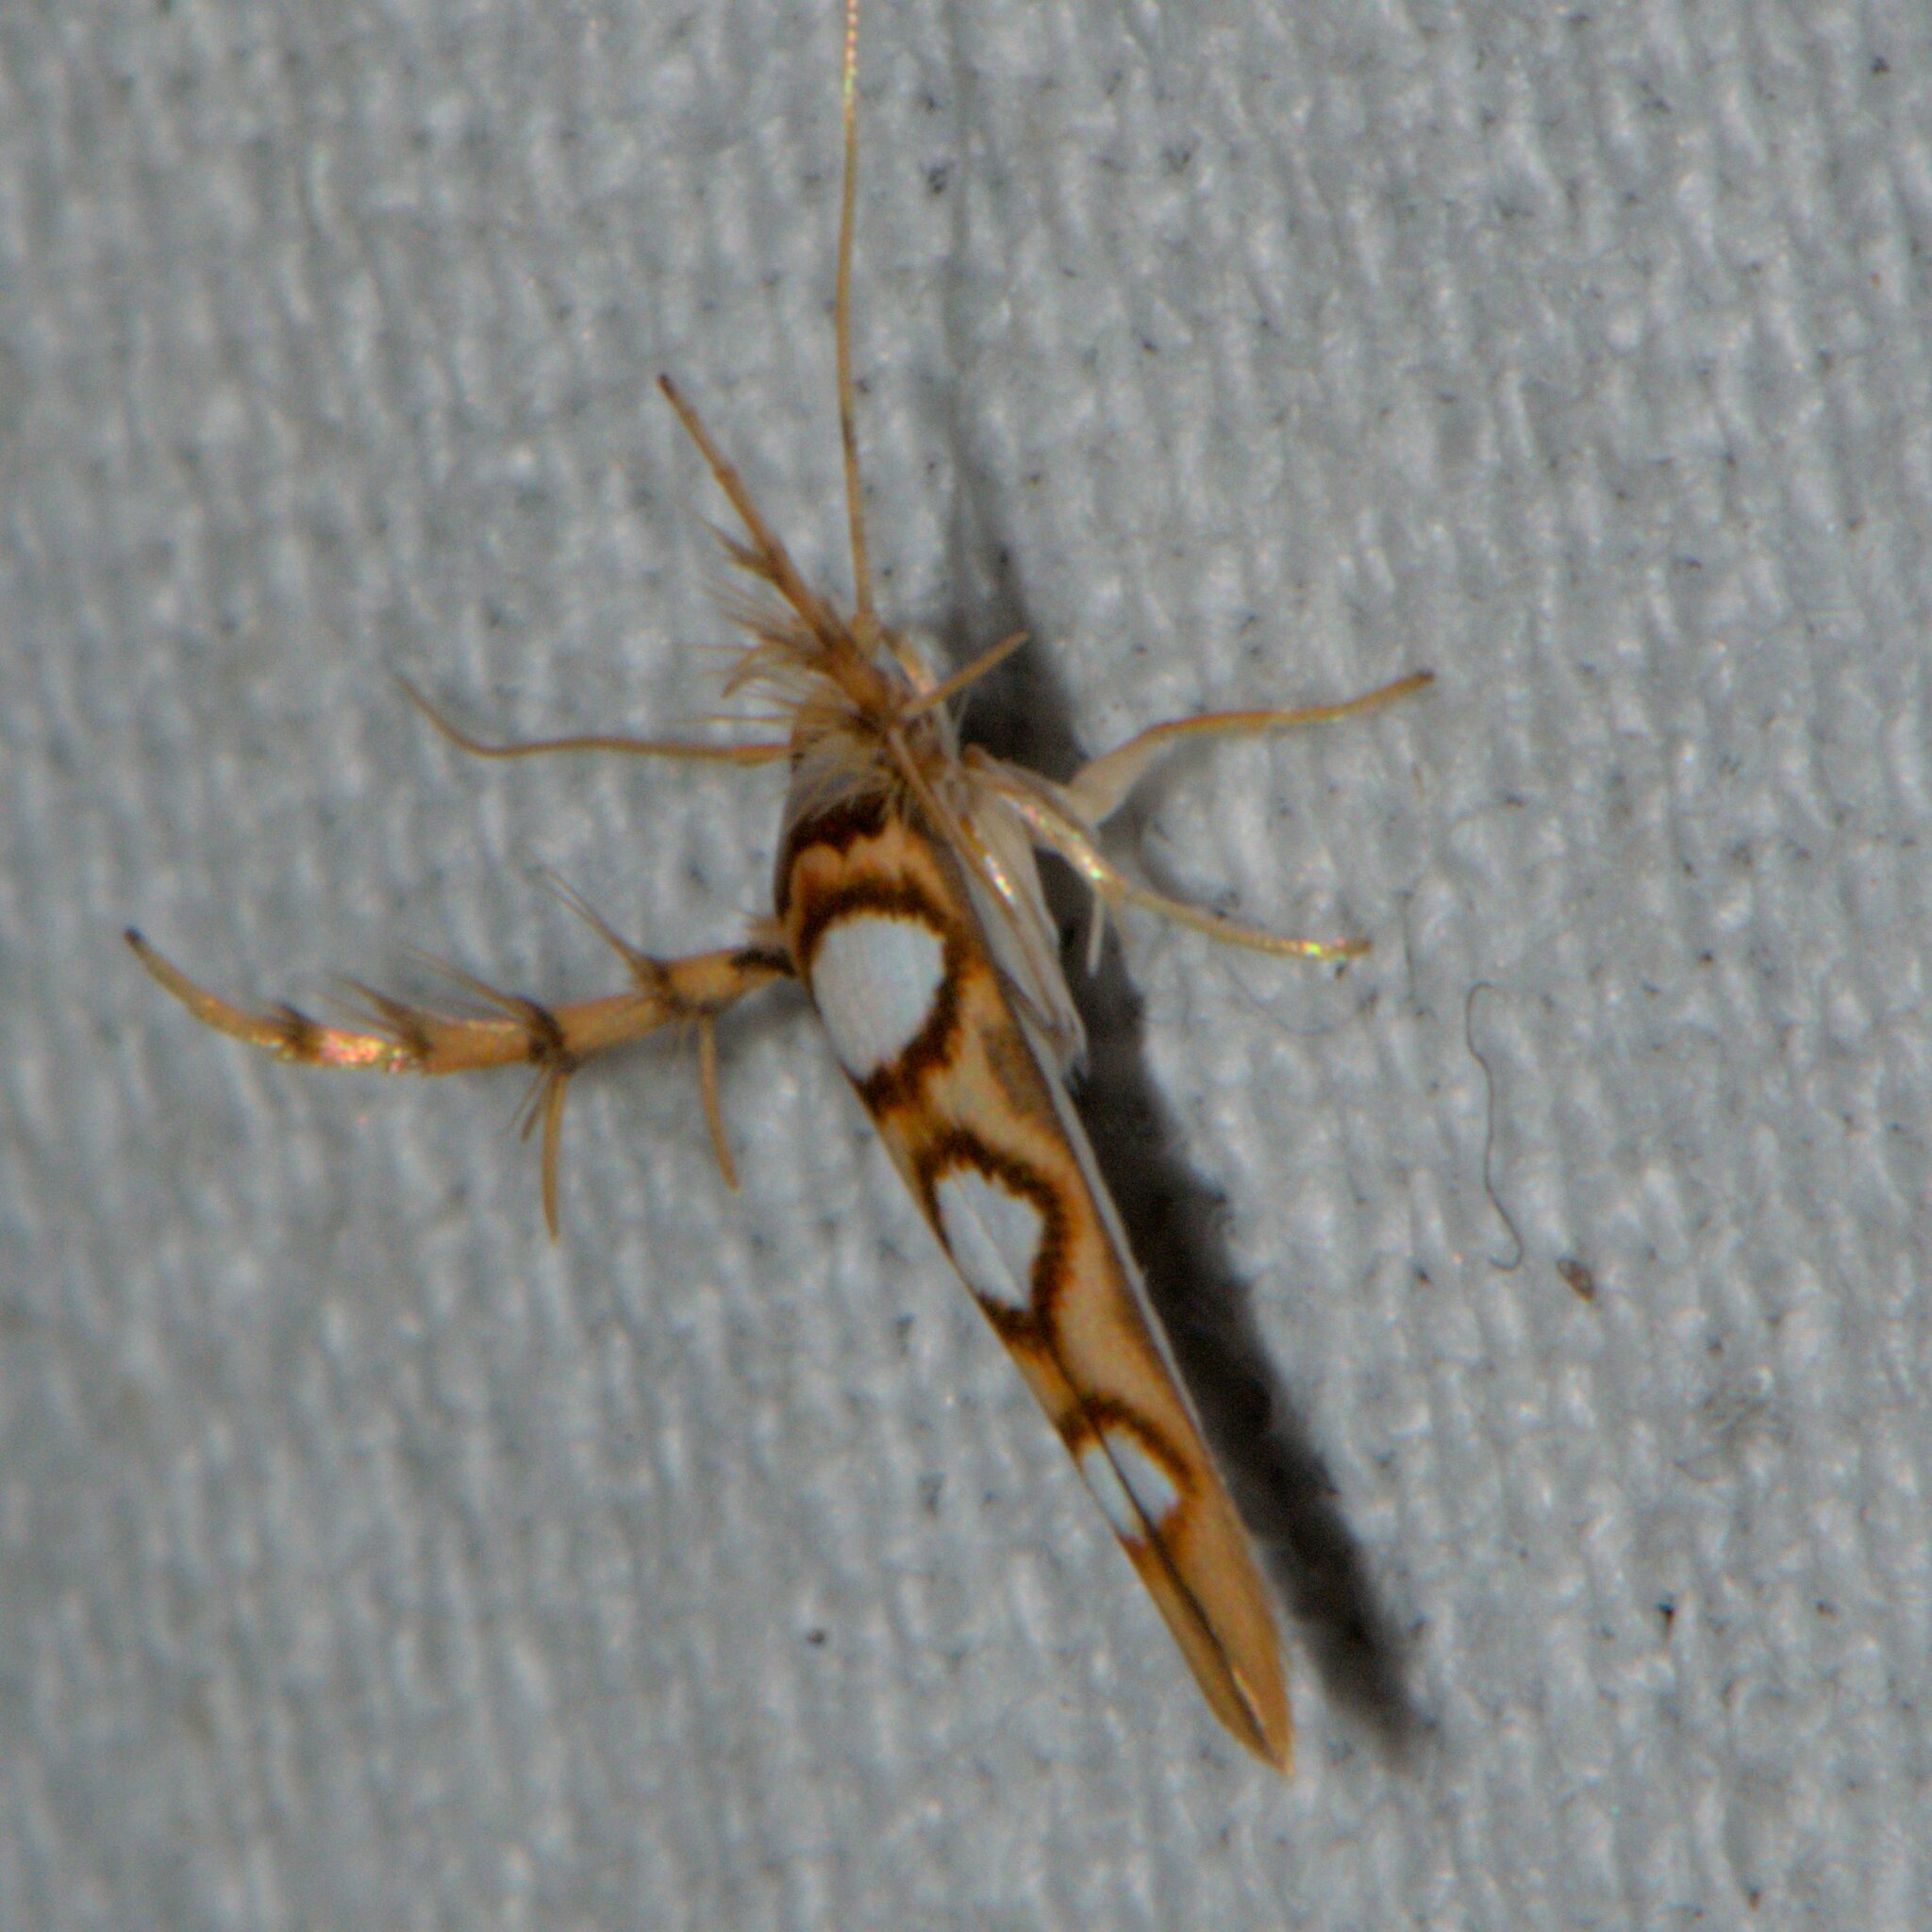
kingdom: Animalia
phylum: Arthropoda
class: Insecta
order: Lepidoptera
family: Stathmopodidae
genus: Stathmopoda
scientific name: Stathmopoda orbiculata
